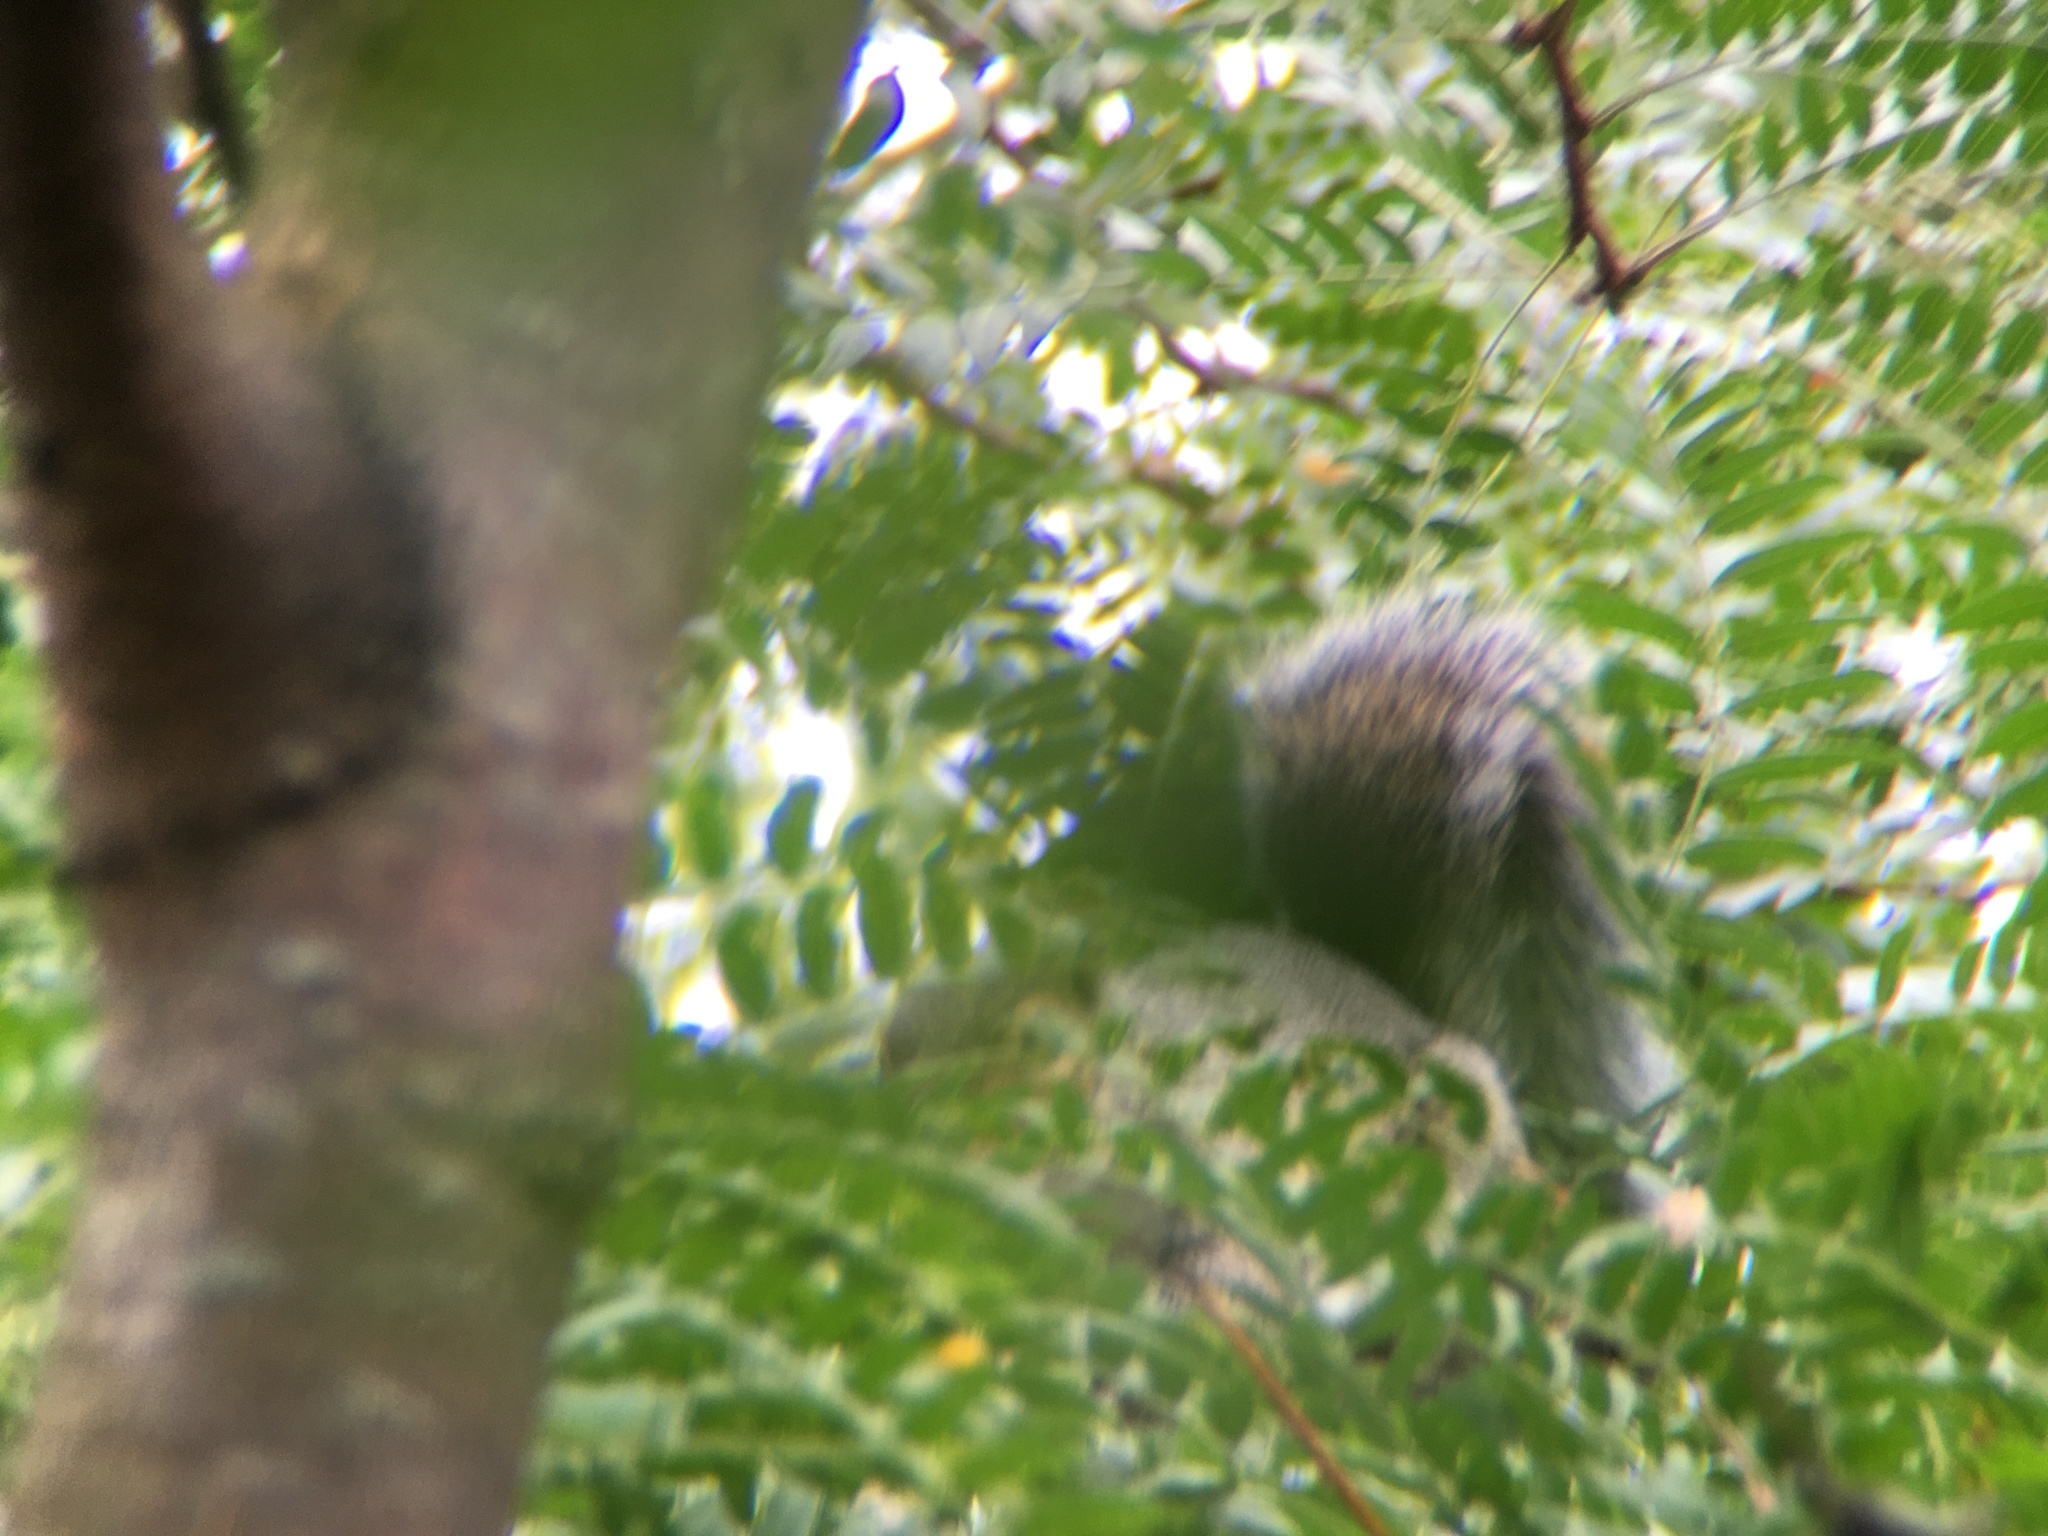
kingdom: Animalia
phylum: Chordata
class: Mammalia
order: Rodentia
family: Sciuridae
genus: Sciurus
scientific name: Sciurus carolinensis
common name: Eastern gray squirrel
